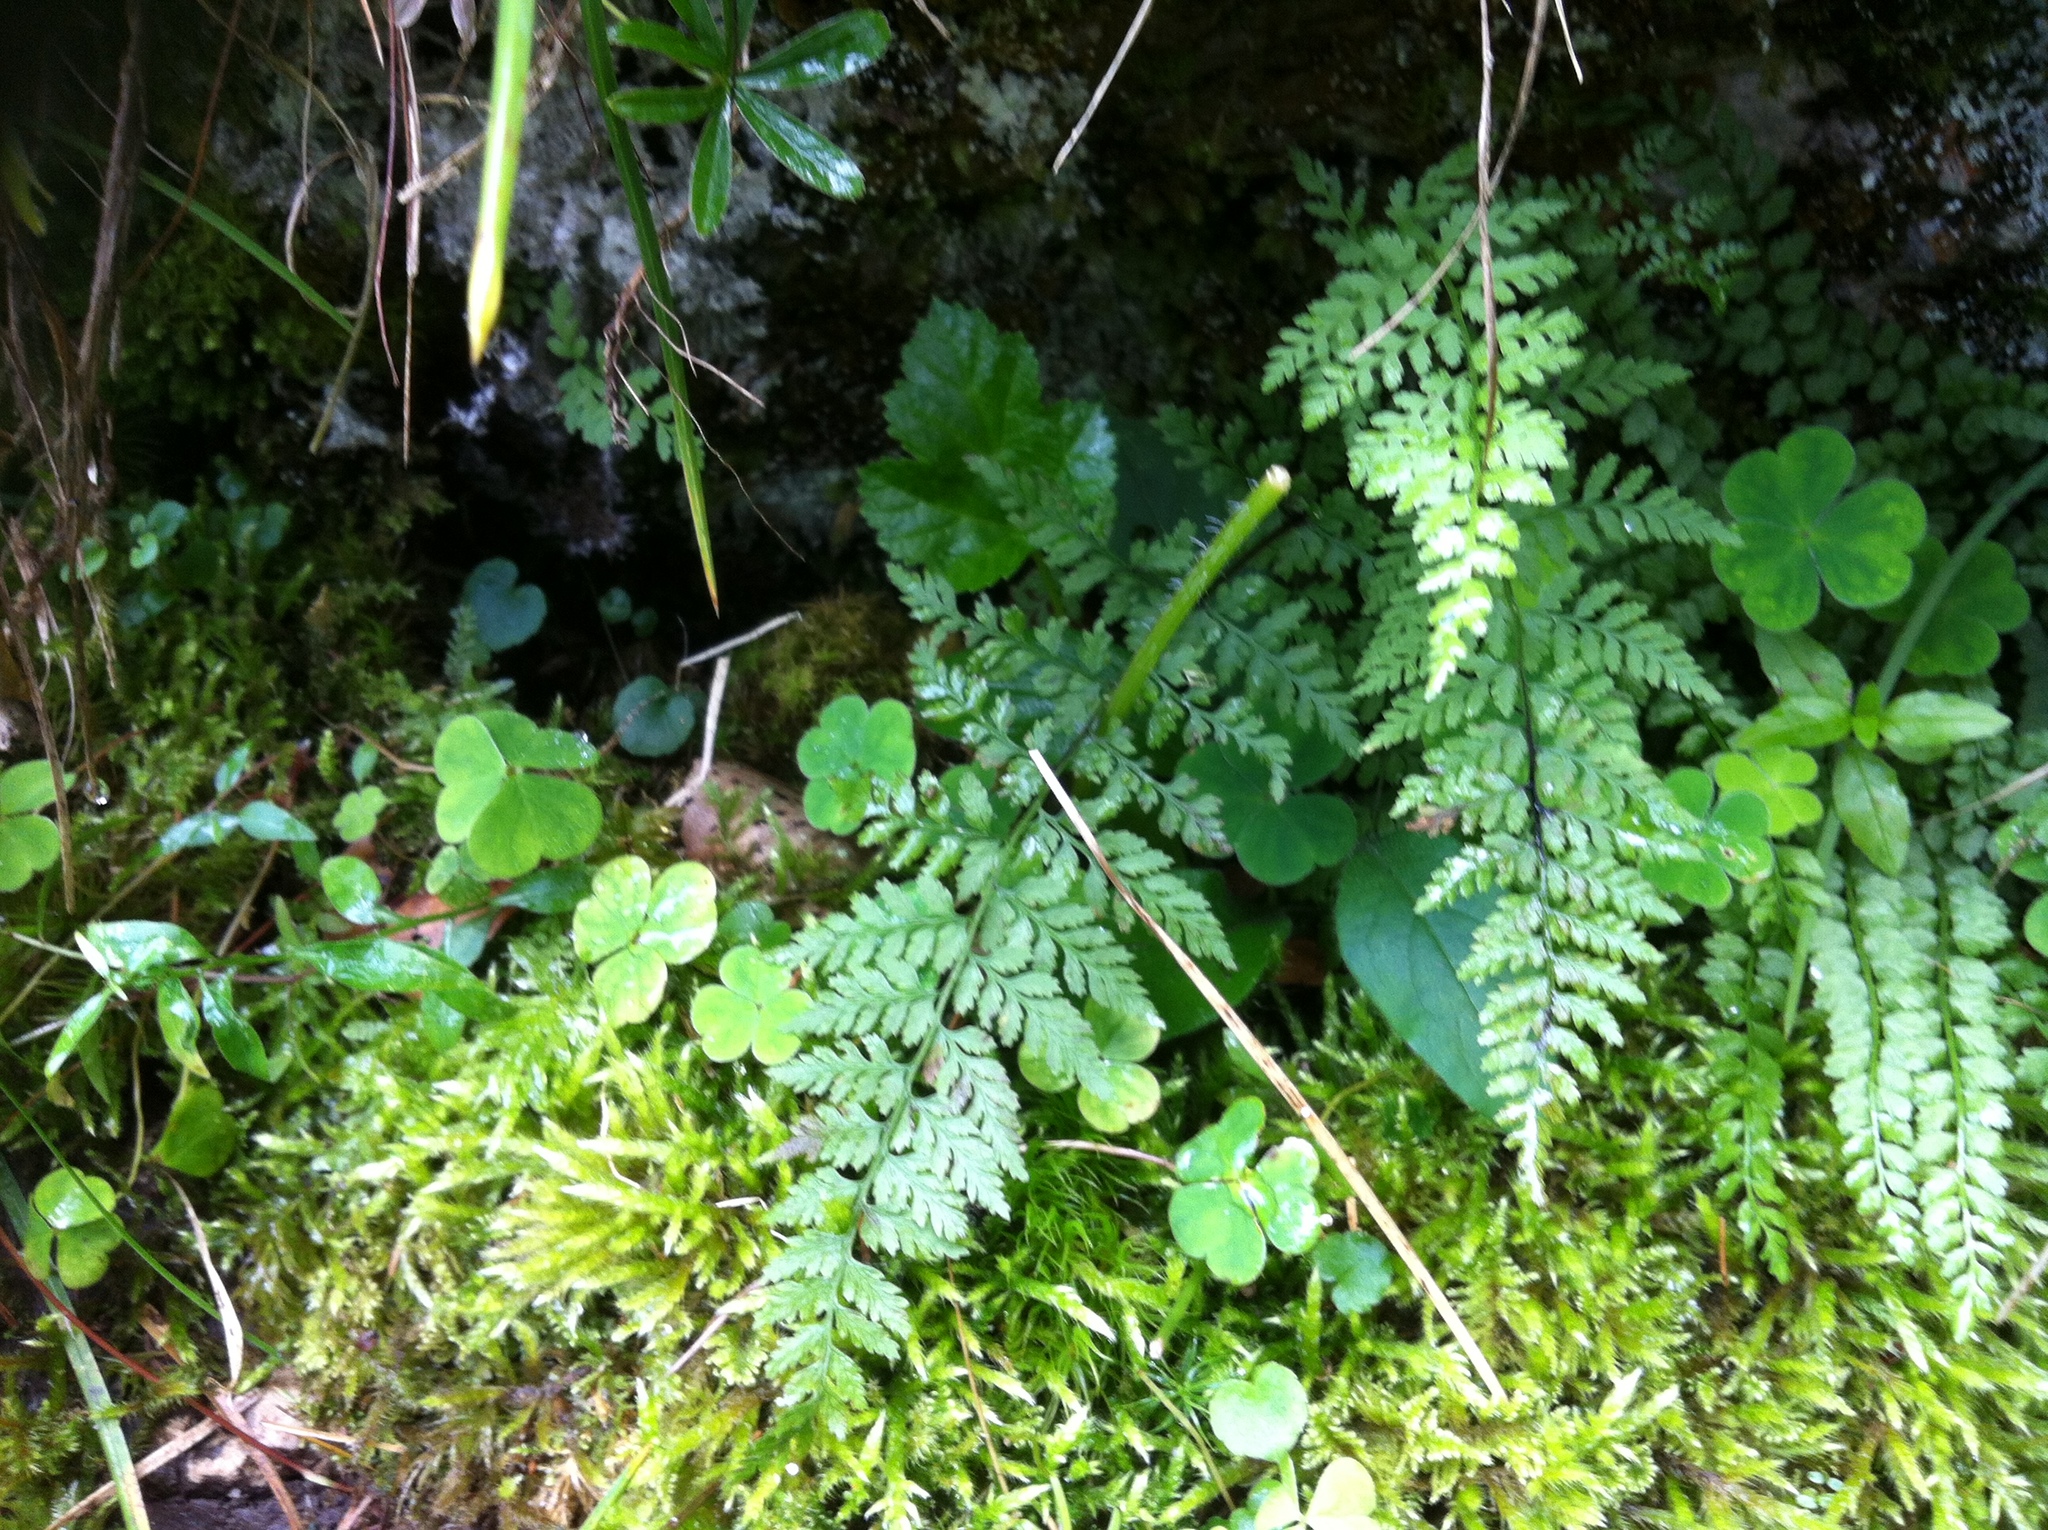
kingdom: Plantae
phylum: Tracheophyta
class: Polypodiopsida
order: Polypodiales
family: Cystopteridaceae
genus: Cystopteris
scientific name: Cystopteris fragilis
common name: Brittle bladder fern
